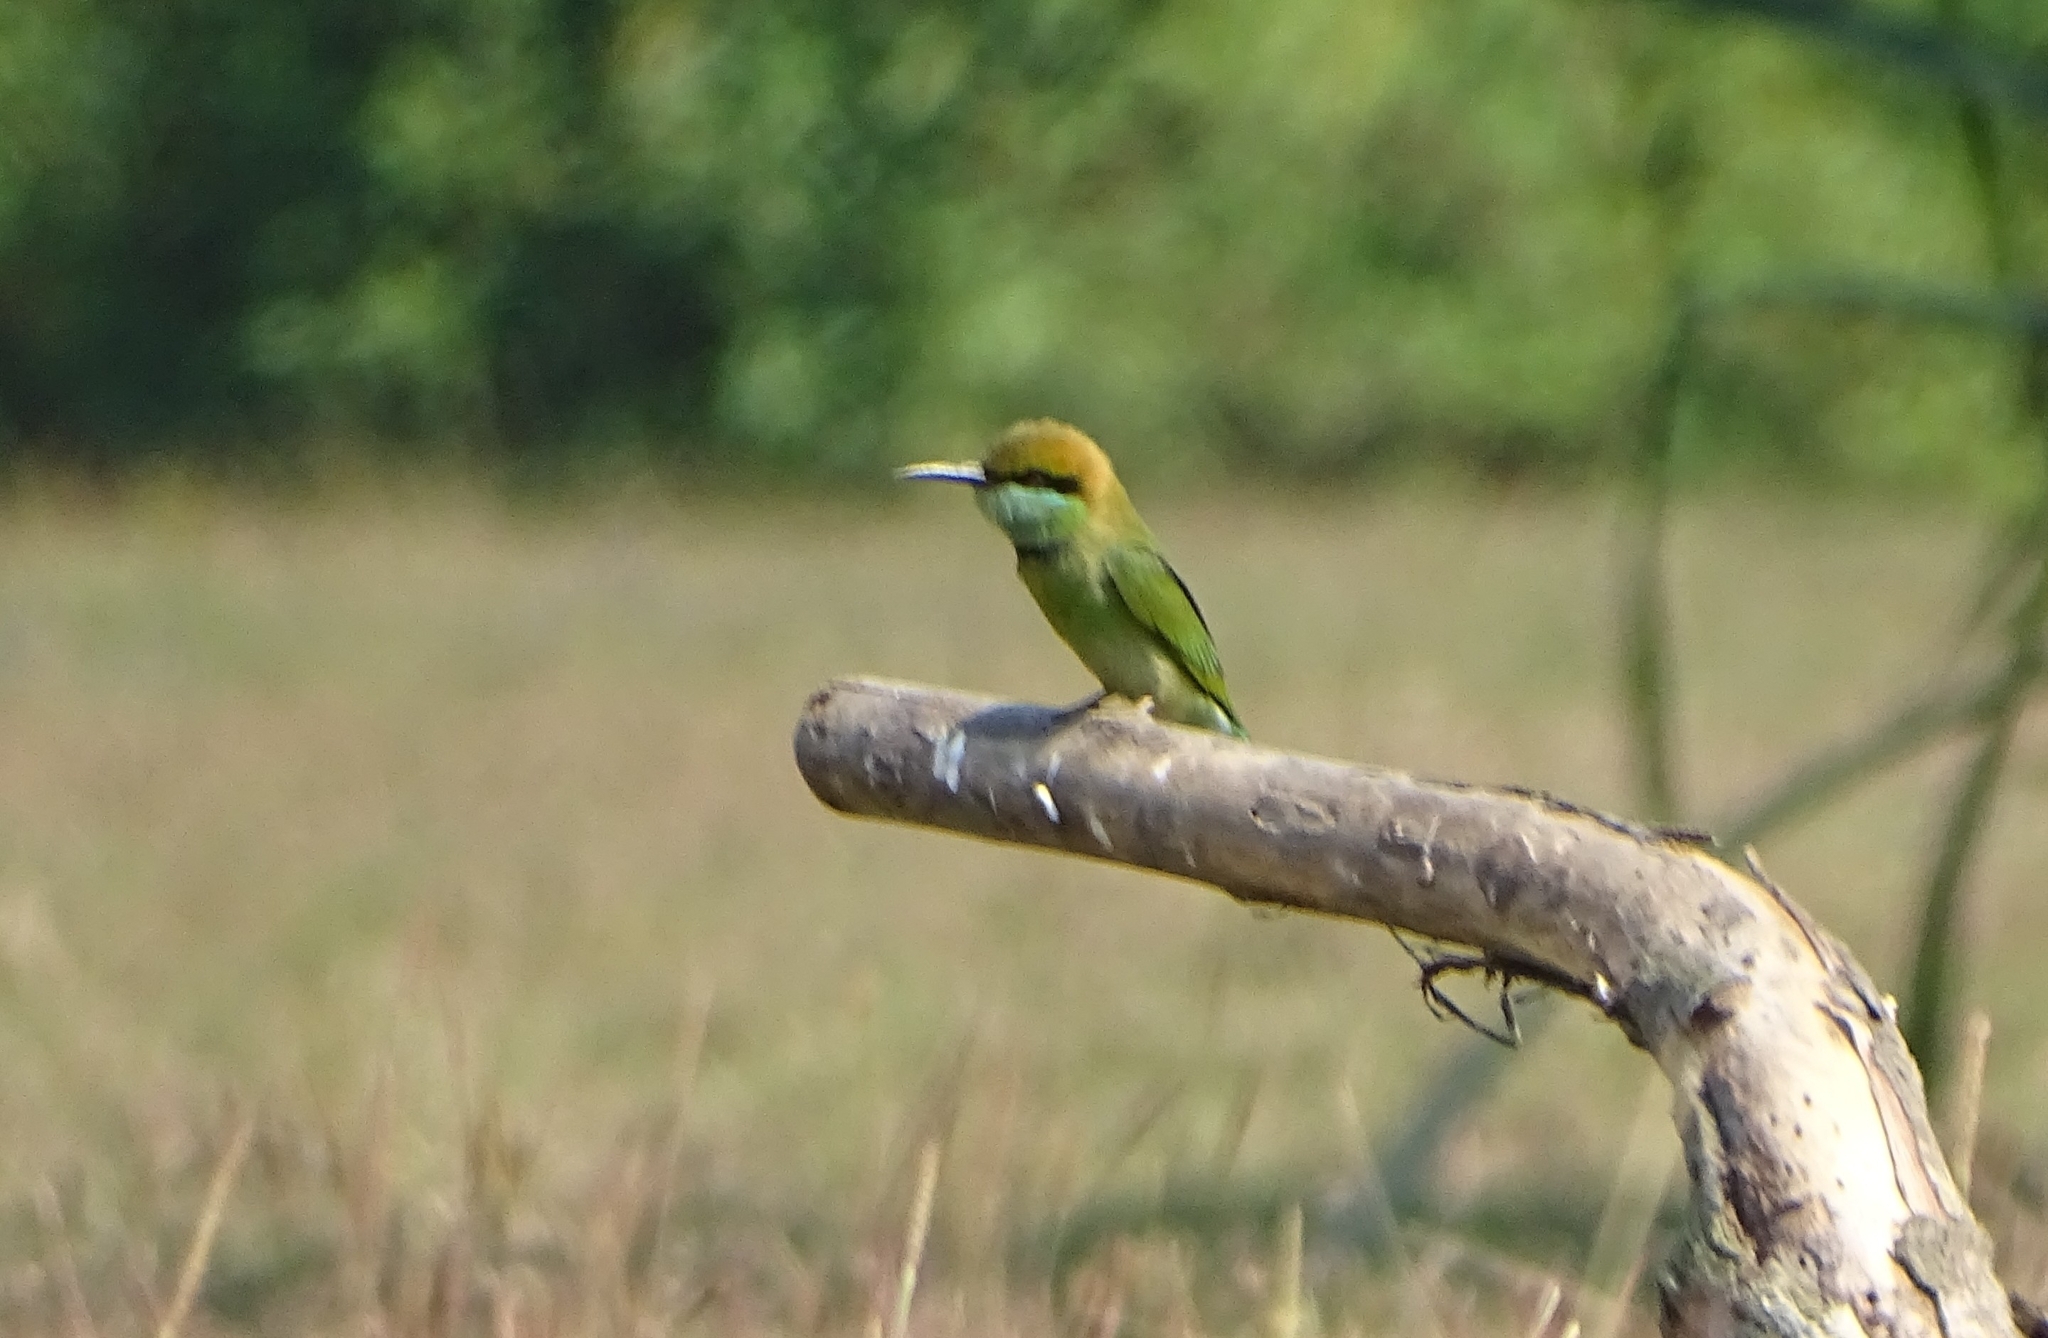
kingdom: Animalia
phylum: Chordata
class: Aves
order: Coraciiformes
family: Meropidae
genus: Merops
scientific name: Merops orientalis
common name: Green bee-eater
